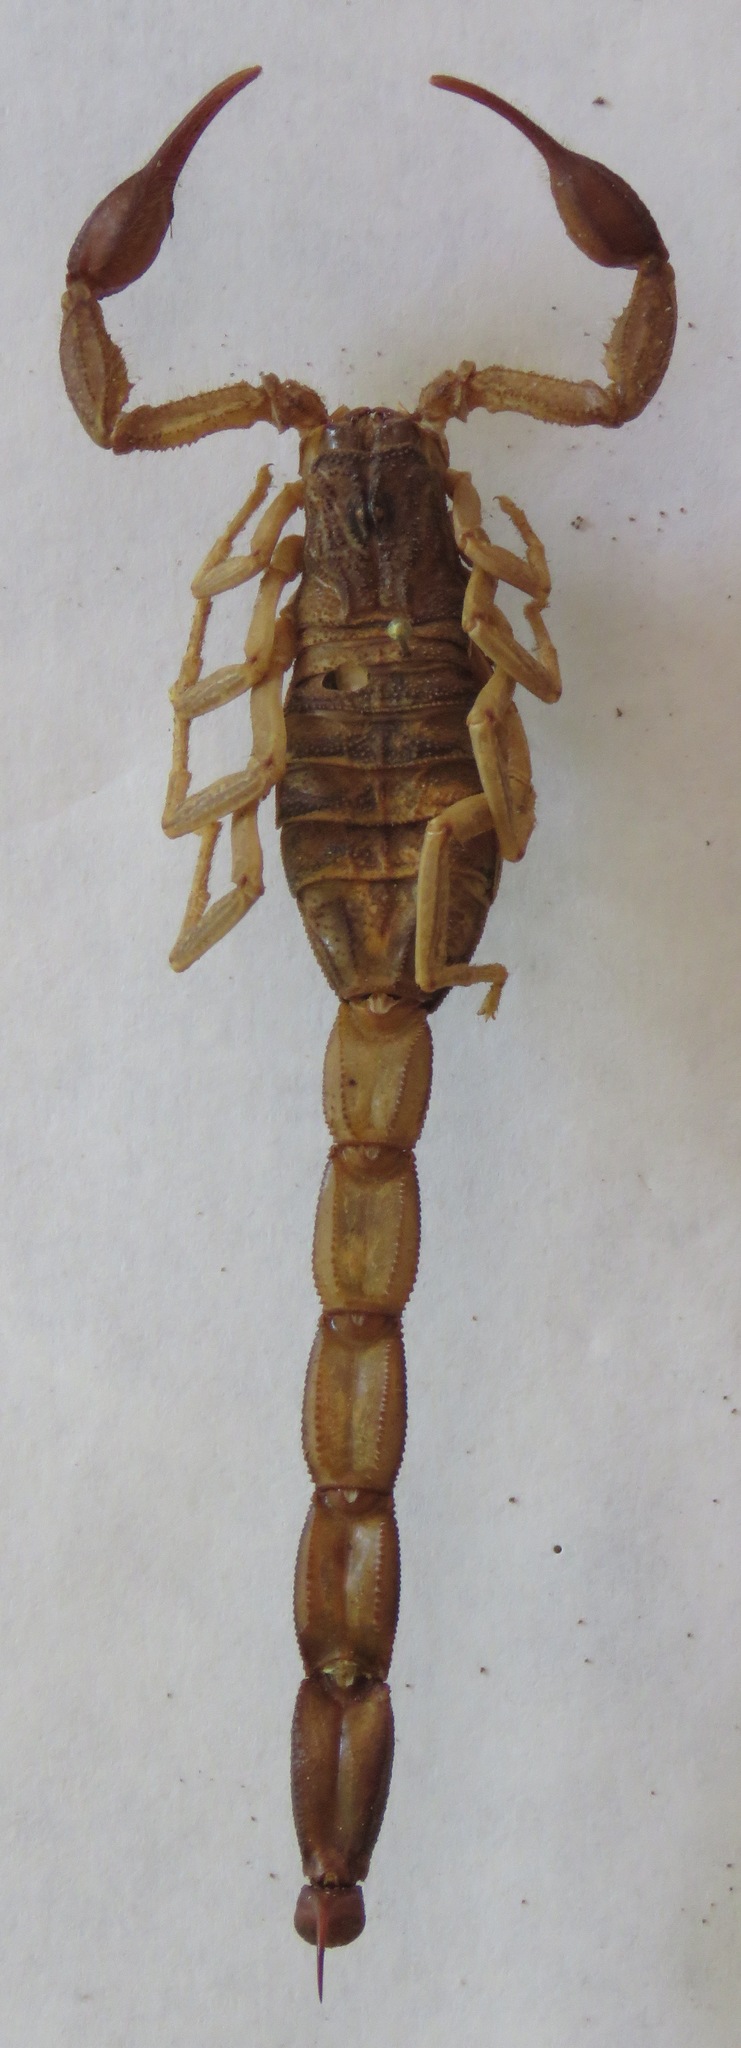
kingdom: Animalia
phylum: Arthropoda
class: Arachnida
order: Scorpiones
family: Buthidae
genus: Centruroides
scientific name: Centruroides edwardsii
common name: Scorpions
